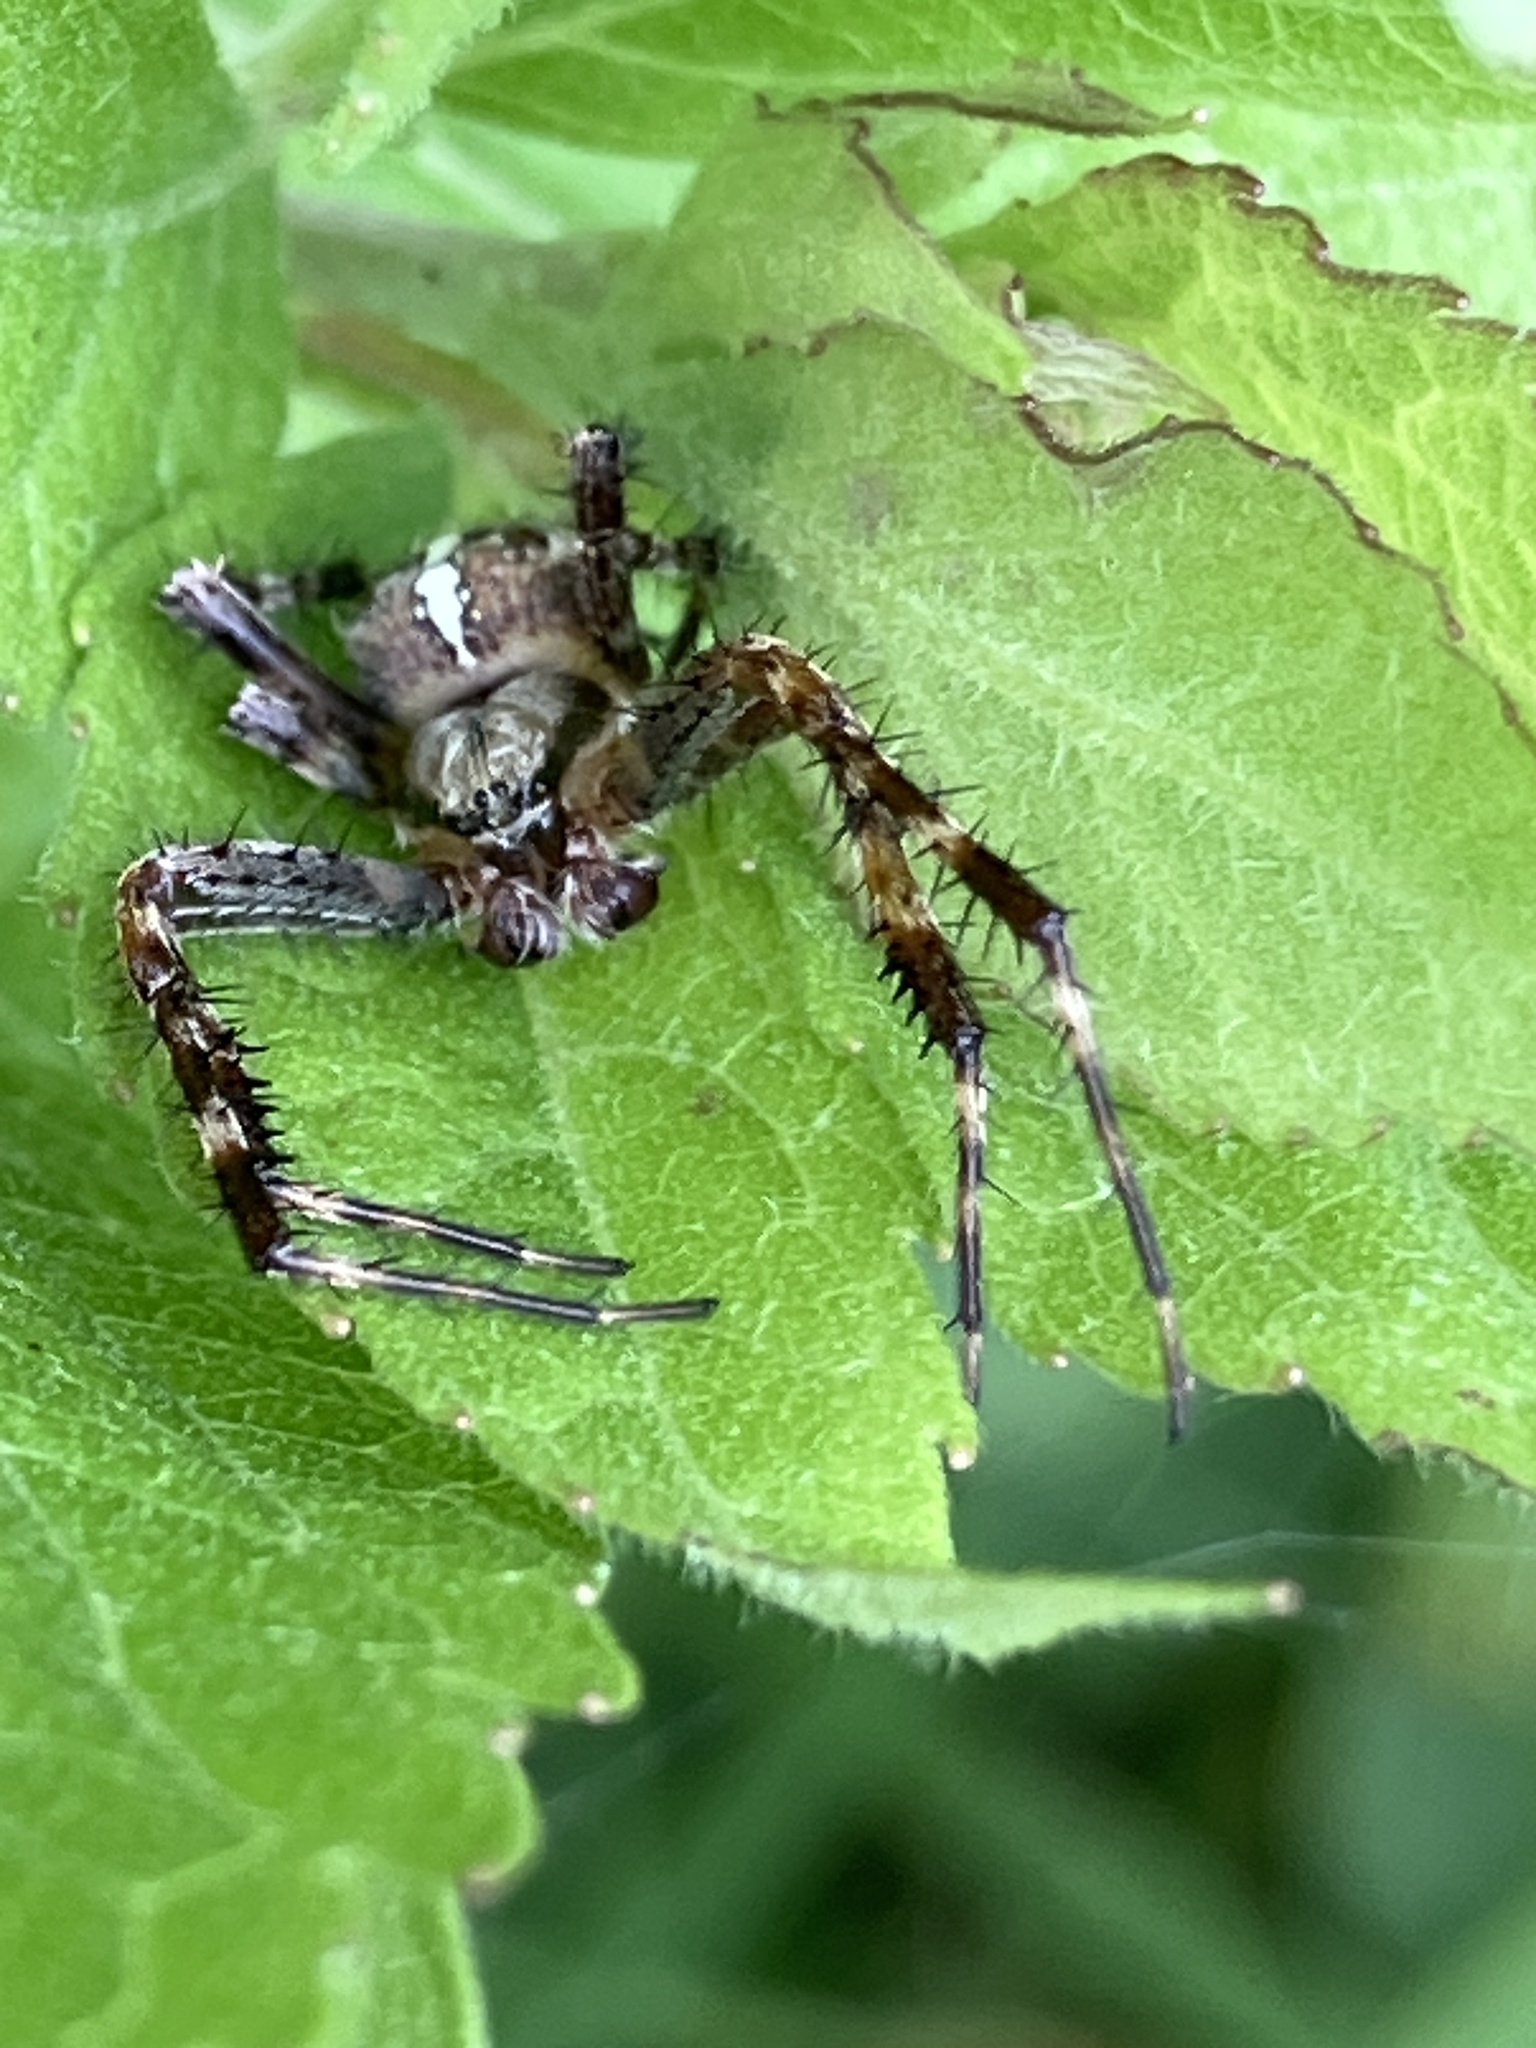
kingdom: Animalia
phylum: Arthropoda
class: Arachnida
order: Araneae
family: Araneidae
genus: Araneus
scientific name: Araneus diadematus
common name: Cross orbweaver
